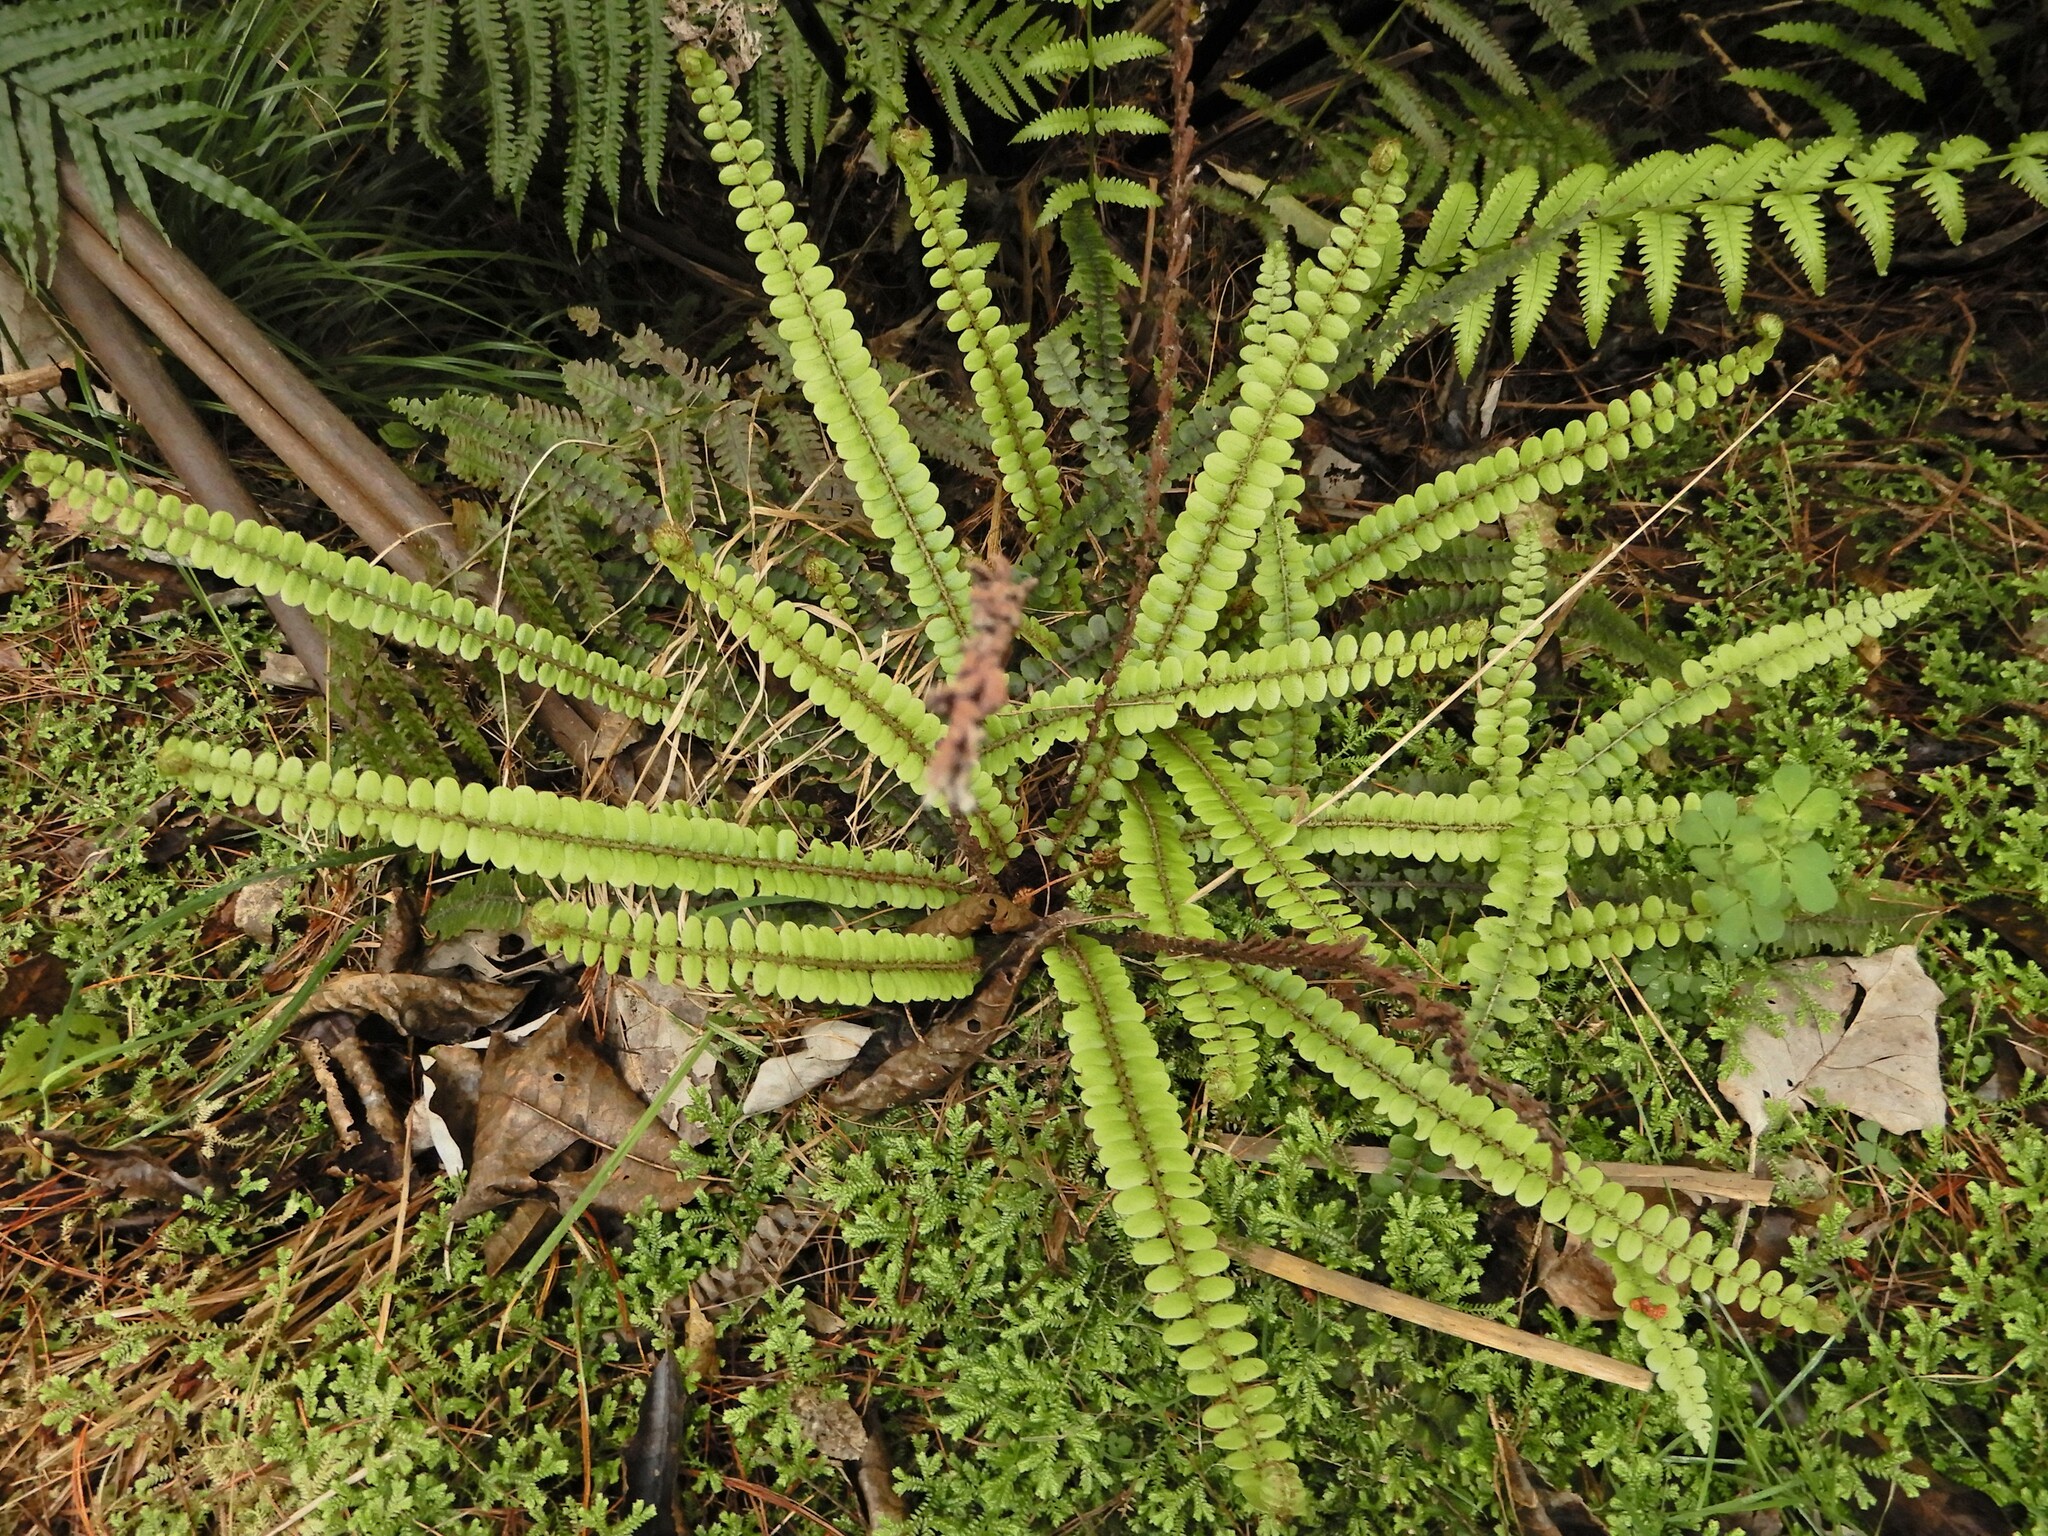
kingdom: Plantae
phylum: Tracheophyta
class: Polypodiopsida
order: Polypodiales
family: Blechnaceae
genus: Cranfillia
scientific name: Cranfillia fluviatilis
